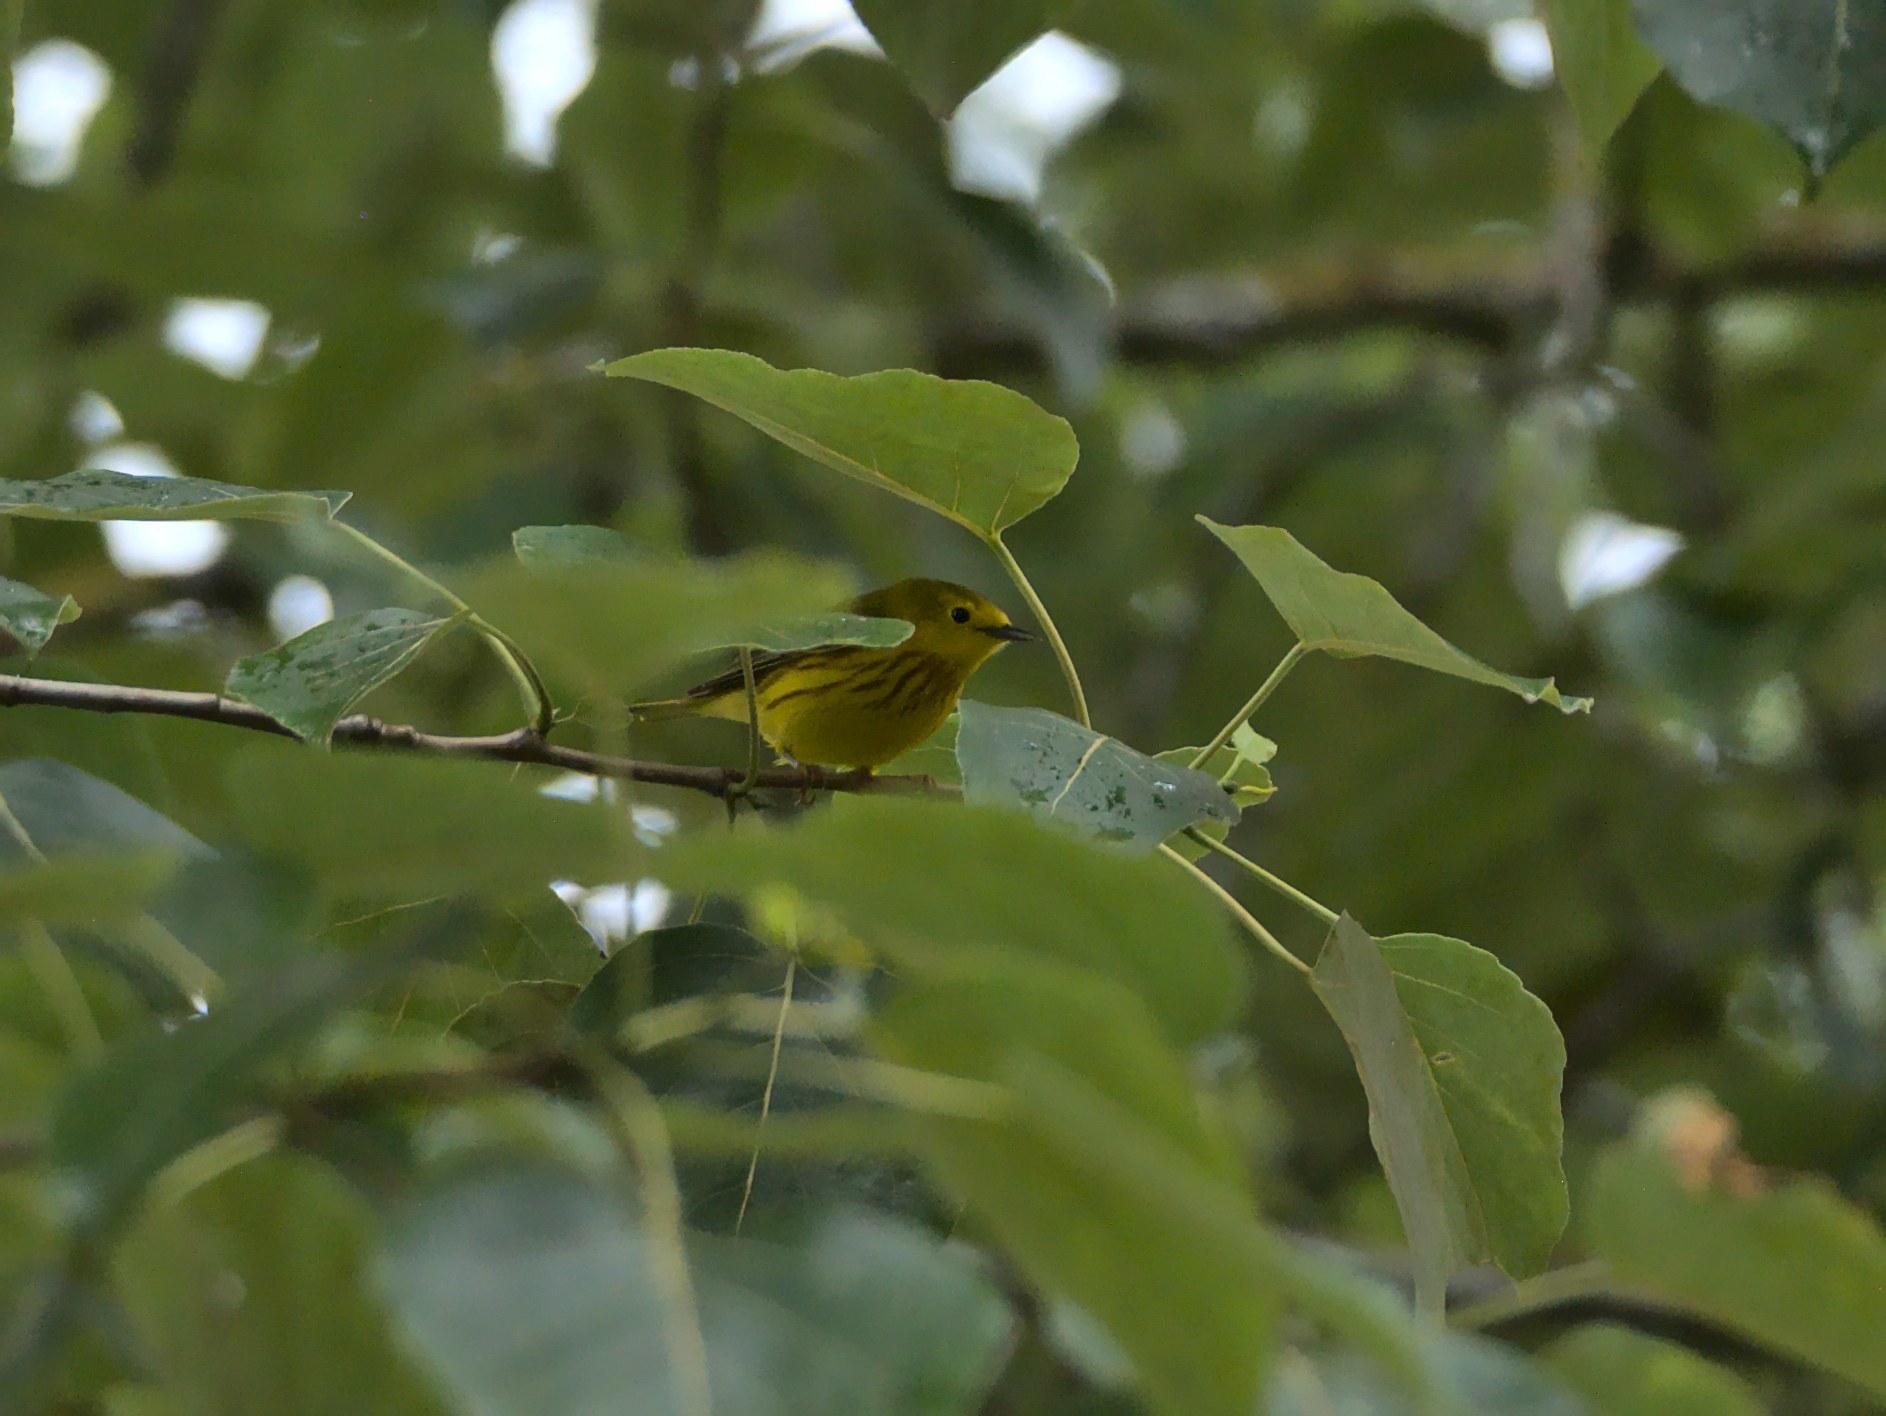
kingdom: Animalia
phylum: Chordata
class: Aves
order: Passeriformes
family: Parulidae
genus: Setophaga
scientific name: Setophaga petechia
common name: Yellow warbler
